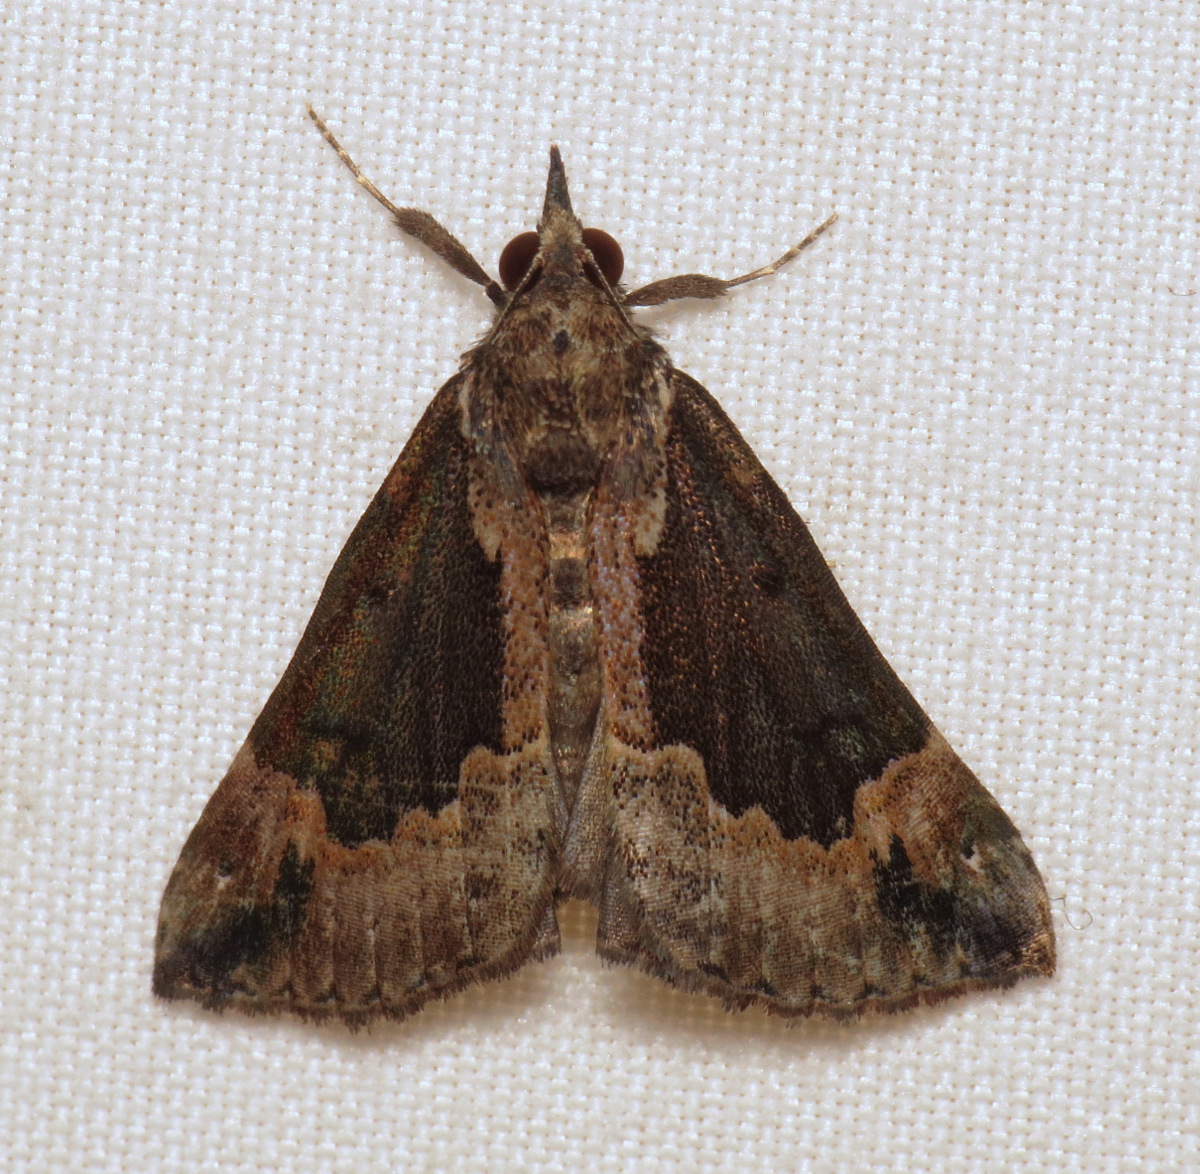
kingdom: Animalia
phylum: Arthropoda
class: Insecta
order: Lepidoptera
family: Erebidae
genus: Hypena
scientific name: Hypena baltimoralis
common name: Baltimore snout
